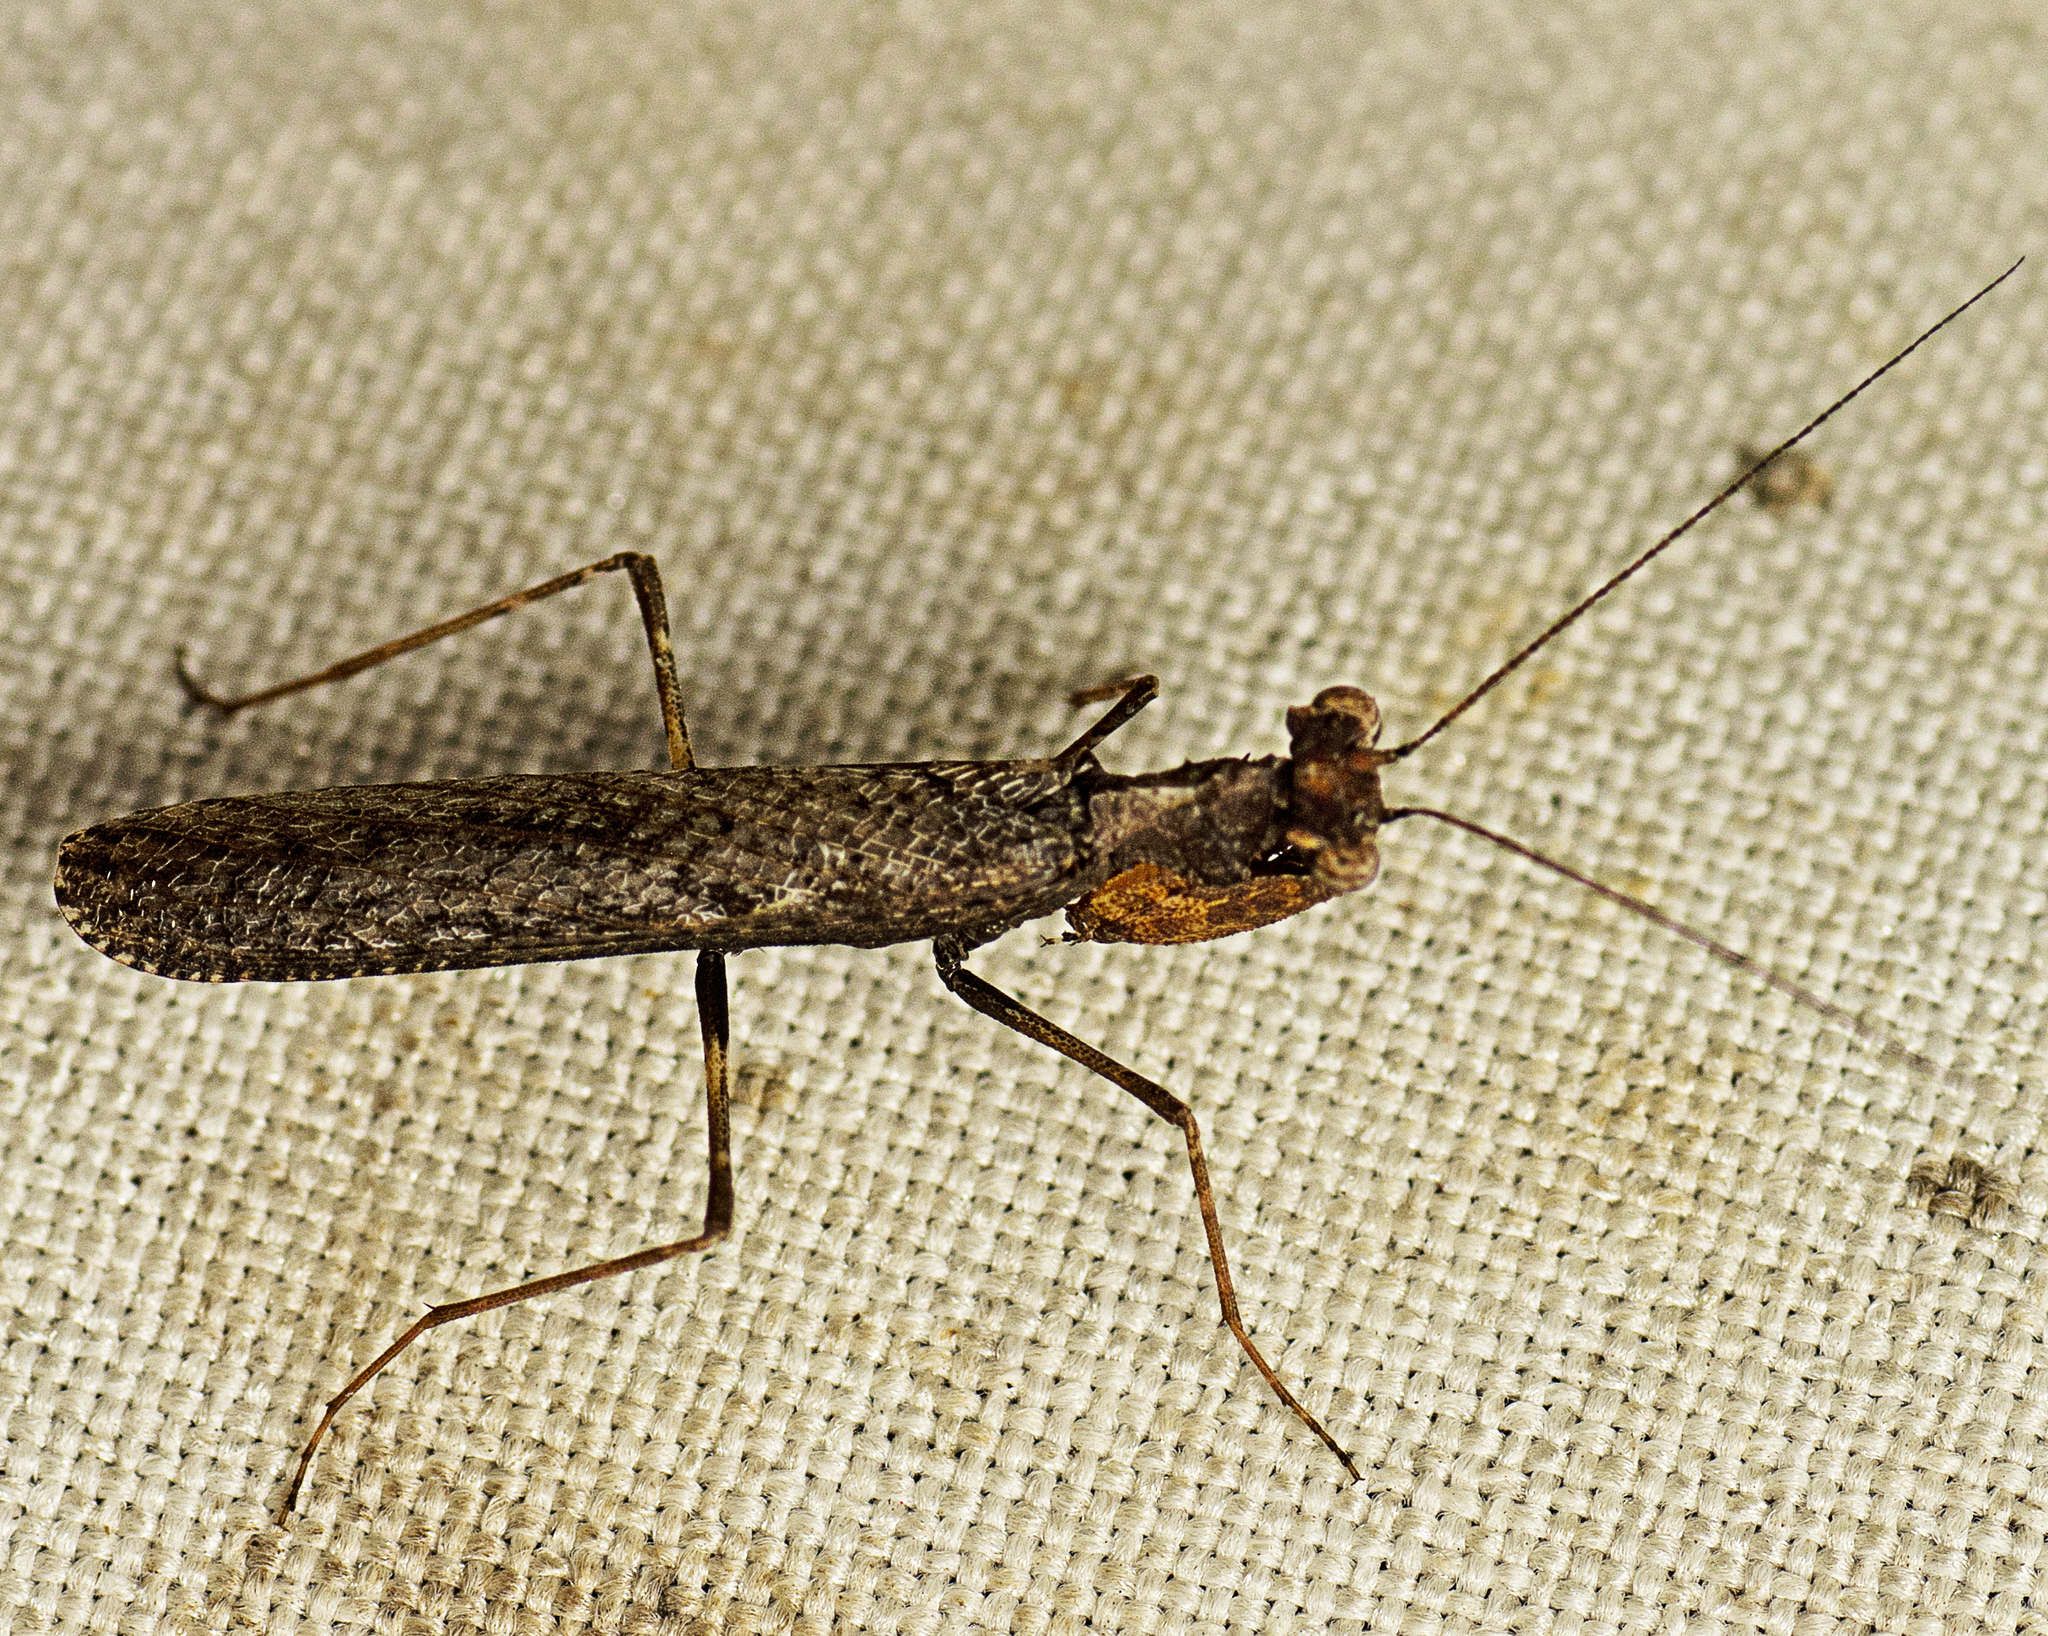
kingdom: Animalia
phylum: Arthropoda
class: Insecta
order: Mantodea
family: Nanomantidae
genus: Paraoxypilus
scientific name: Paraoxypilus tasmaniensis
